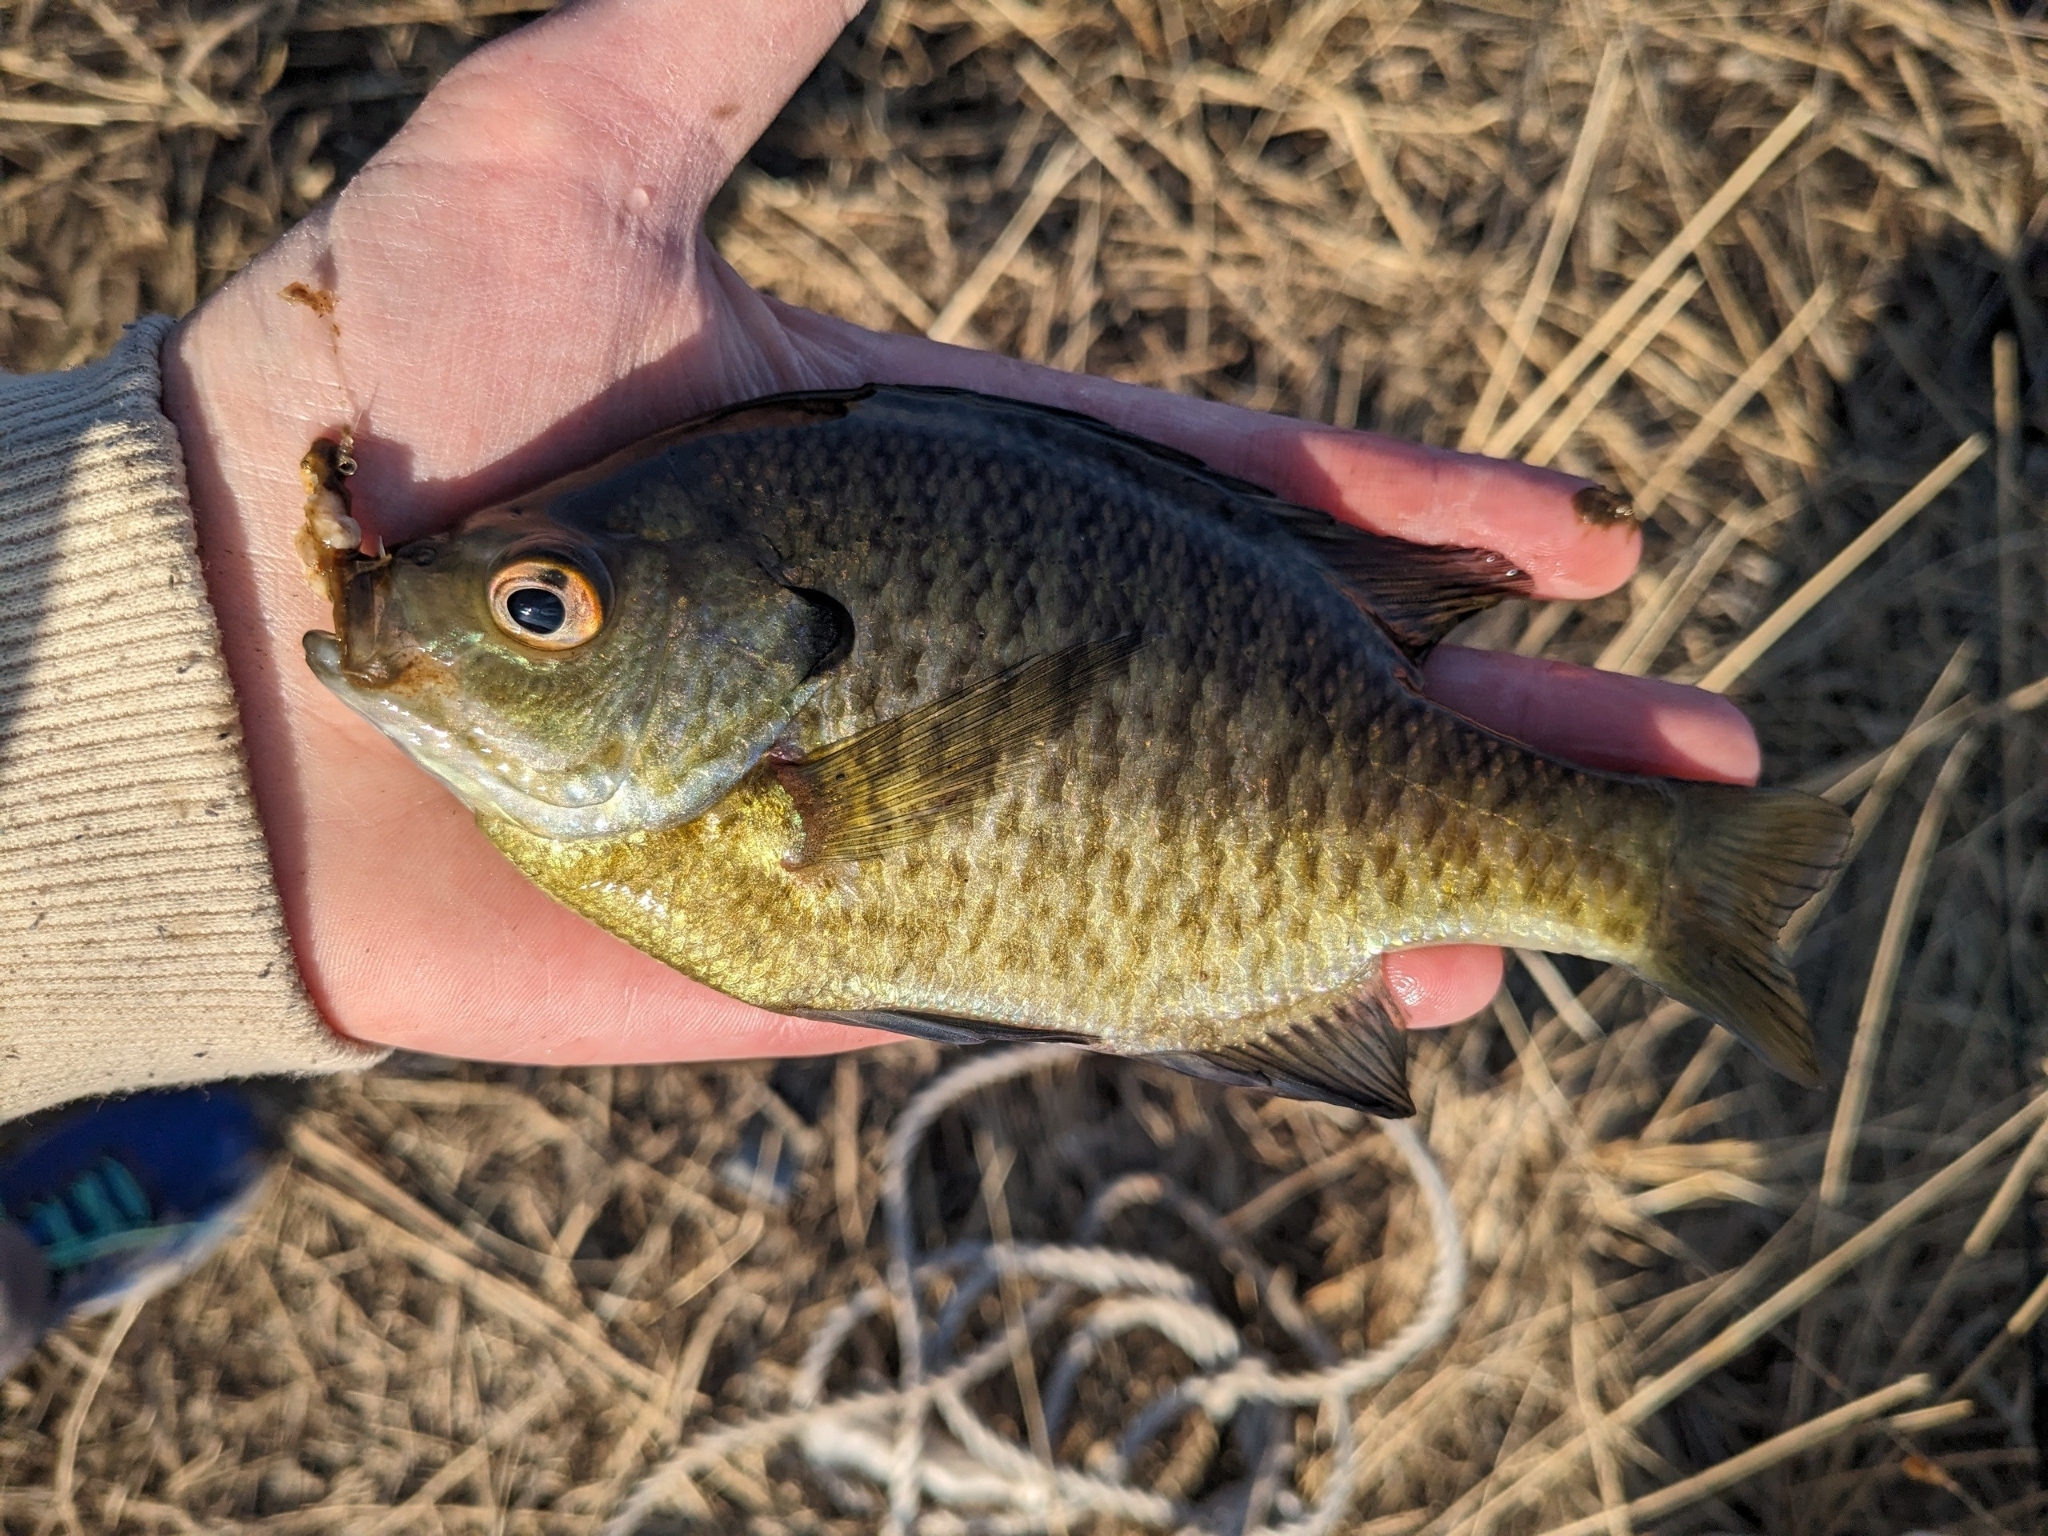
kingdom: Animalia
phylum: Chordata
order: Perciformes
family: Centrarchidae
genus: Lepomis
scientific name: Lepomis macrochirus
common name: Bluegill
